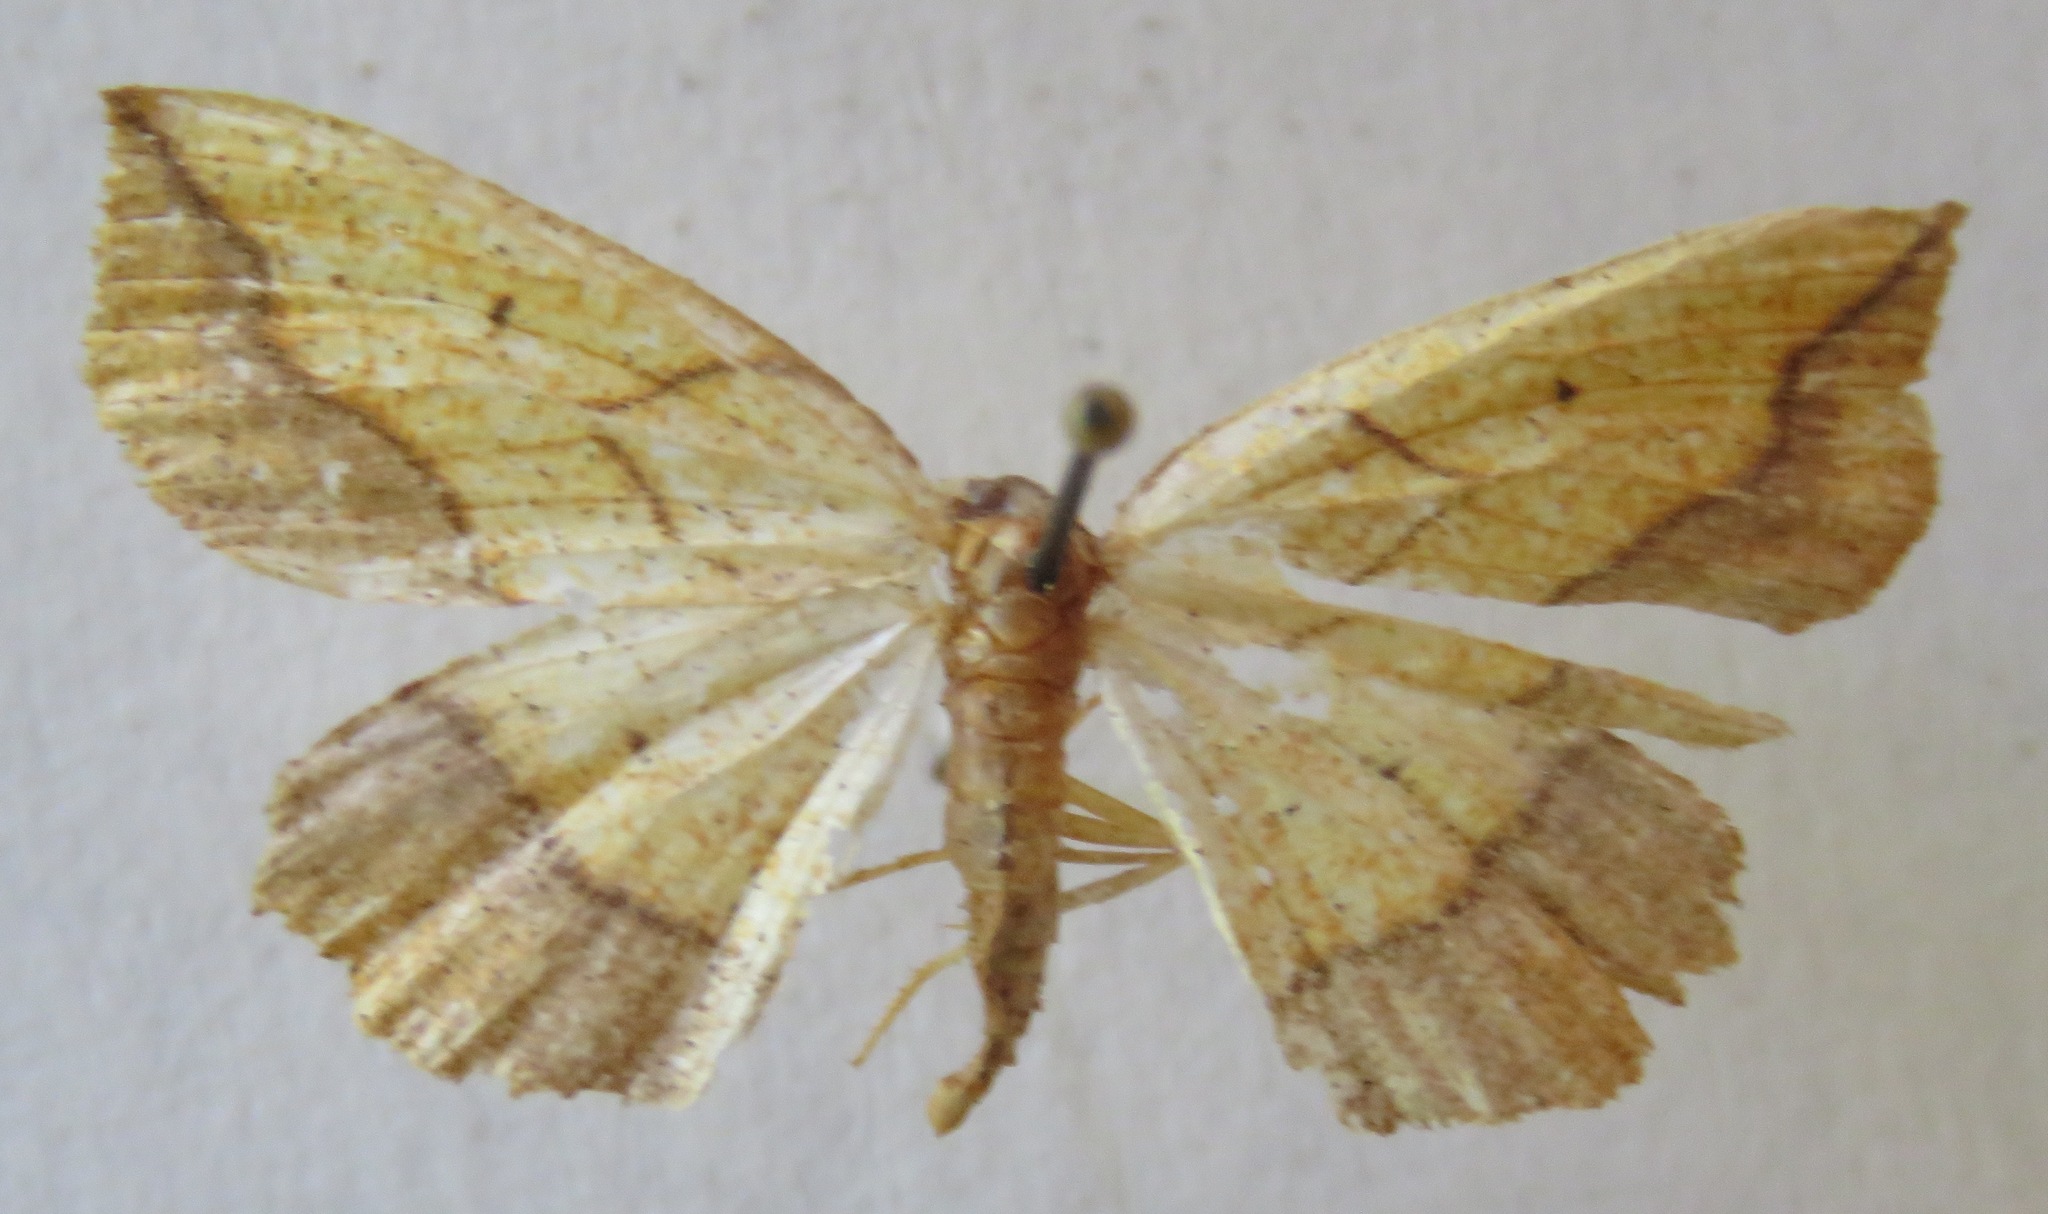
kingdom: Animalia
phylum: Arthropoda
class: Insecta
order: Lepidoptera
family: Geometridae
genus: Epione
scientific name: Epione repandaria
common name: Bordered beauty
